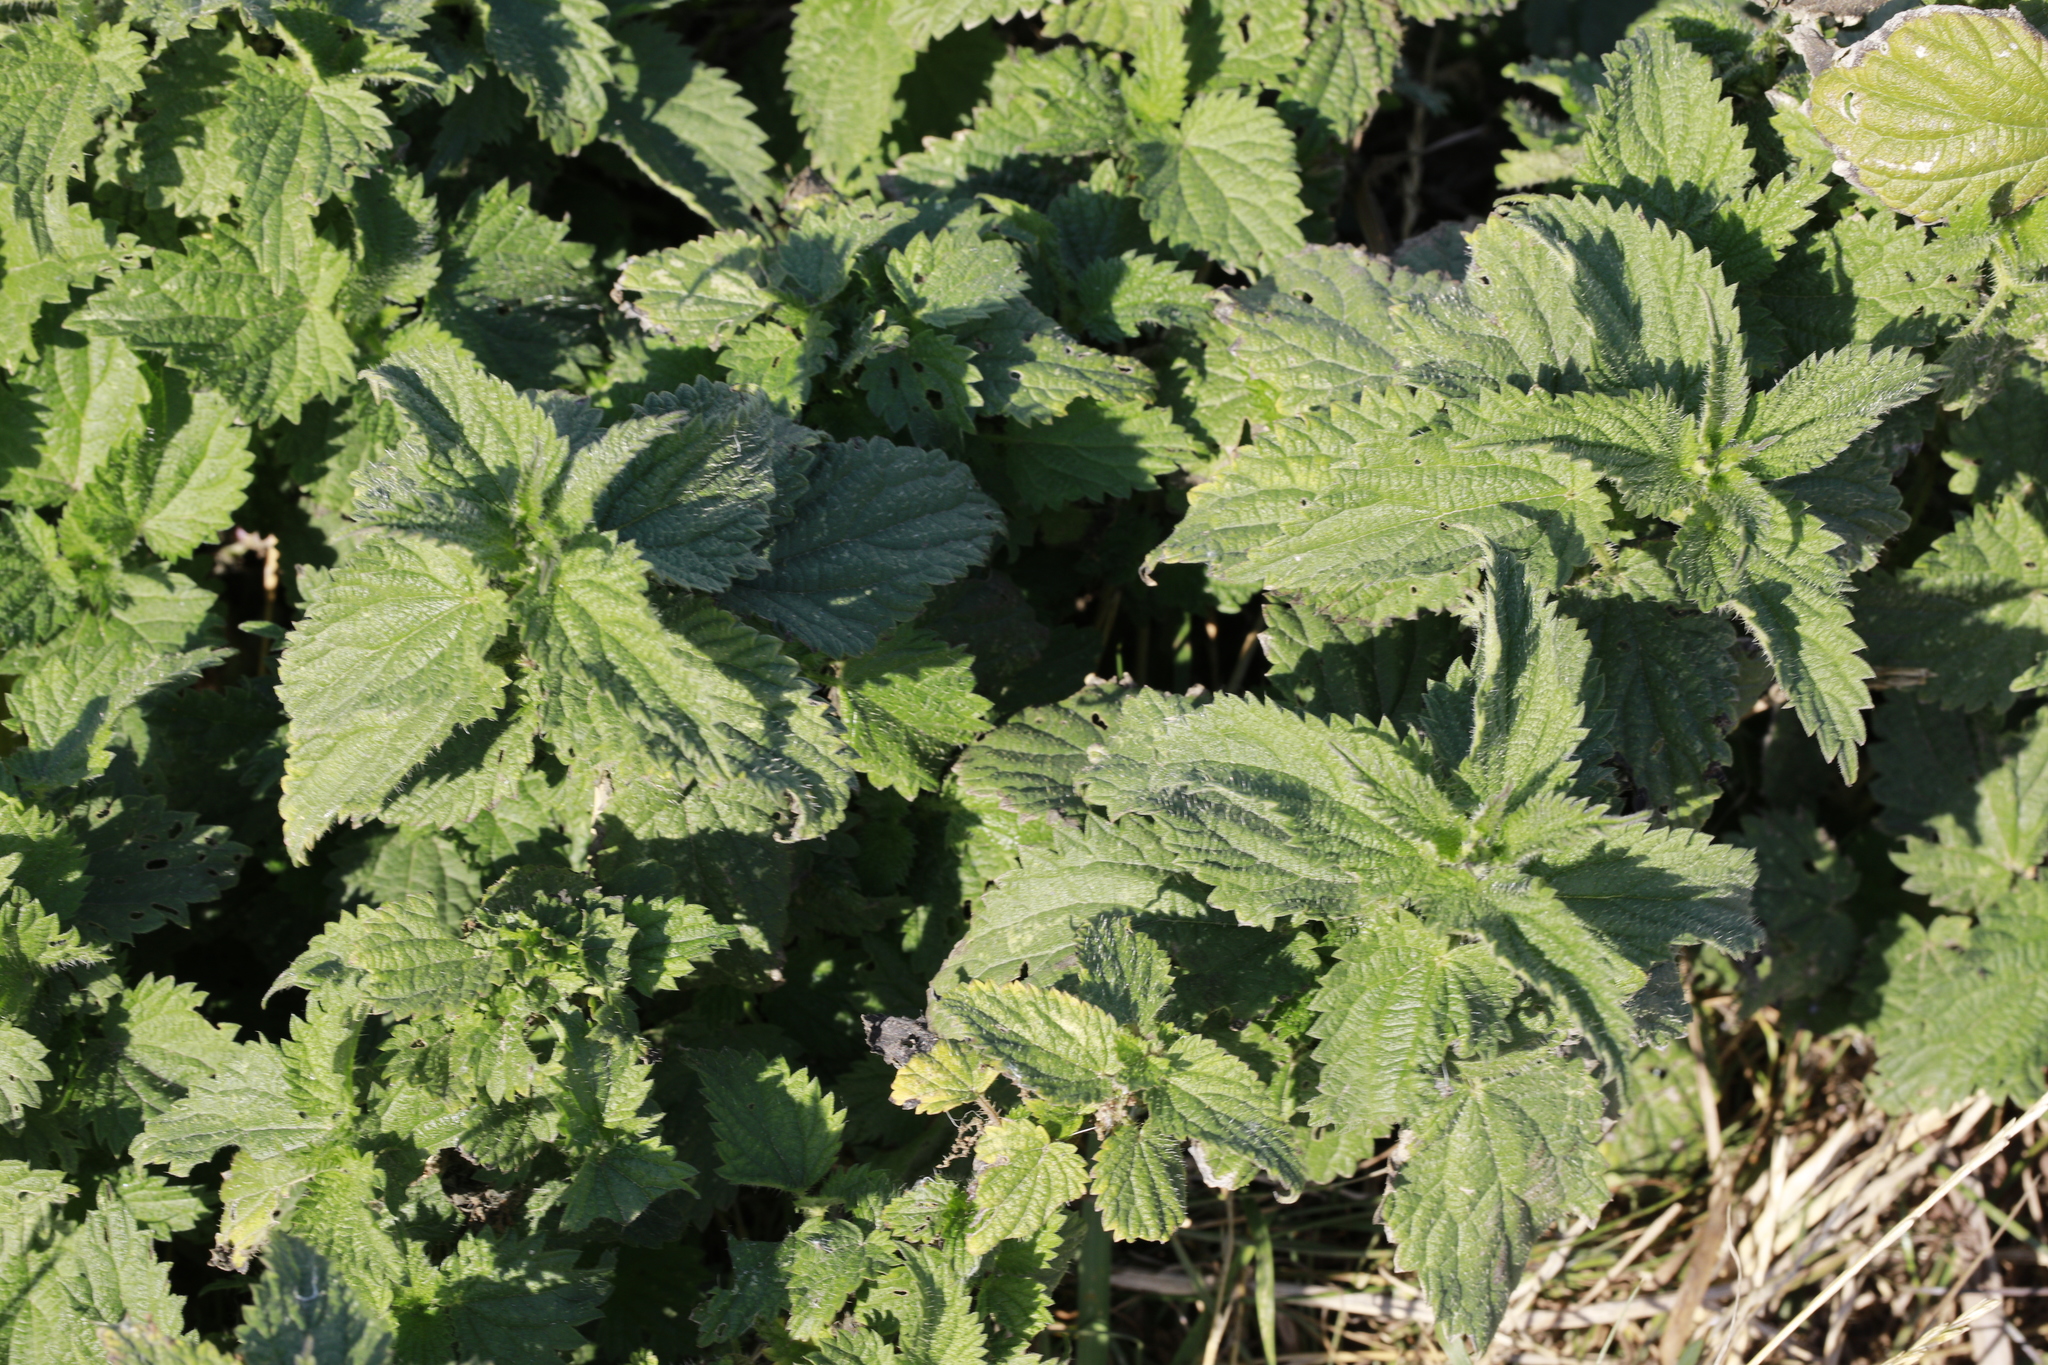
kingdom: Plantae
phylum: Tracheophyta
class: Magnoliopsida
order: Rosales
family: Urticaceae
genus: Urtica
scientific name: Urtica dioica
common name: Common nettle
